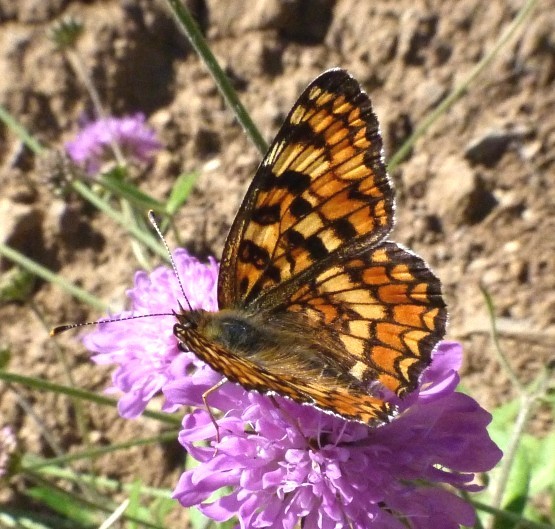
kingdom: Animalia
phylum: Arthropoda
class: Insecta
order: Lepidoptera
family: Nymphalidae
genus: Melitaea
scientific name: Melitaea phoebe
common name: Knapweed fritillary
